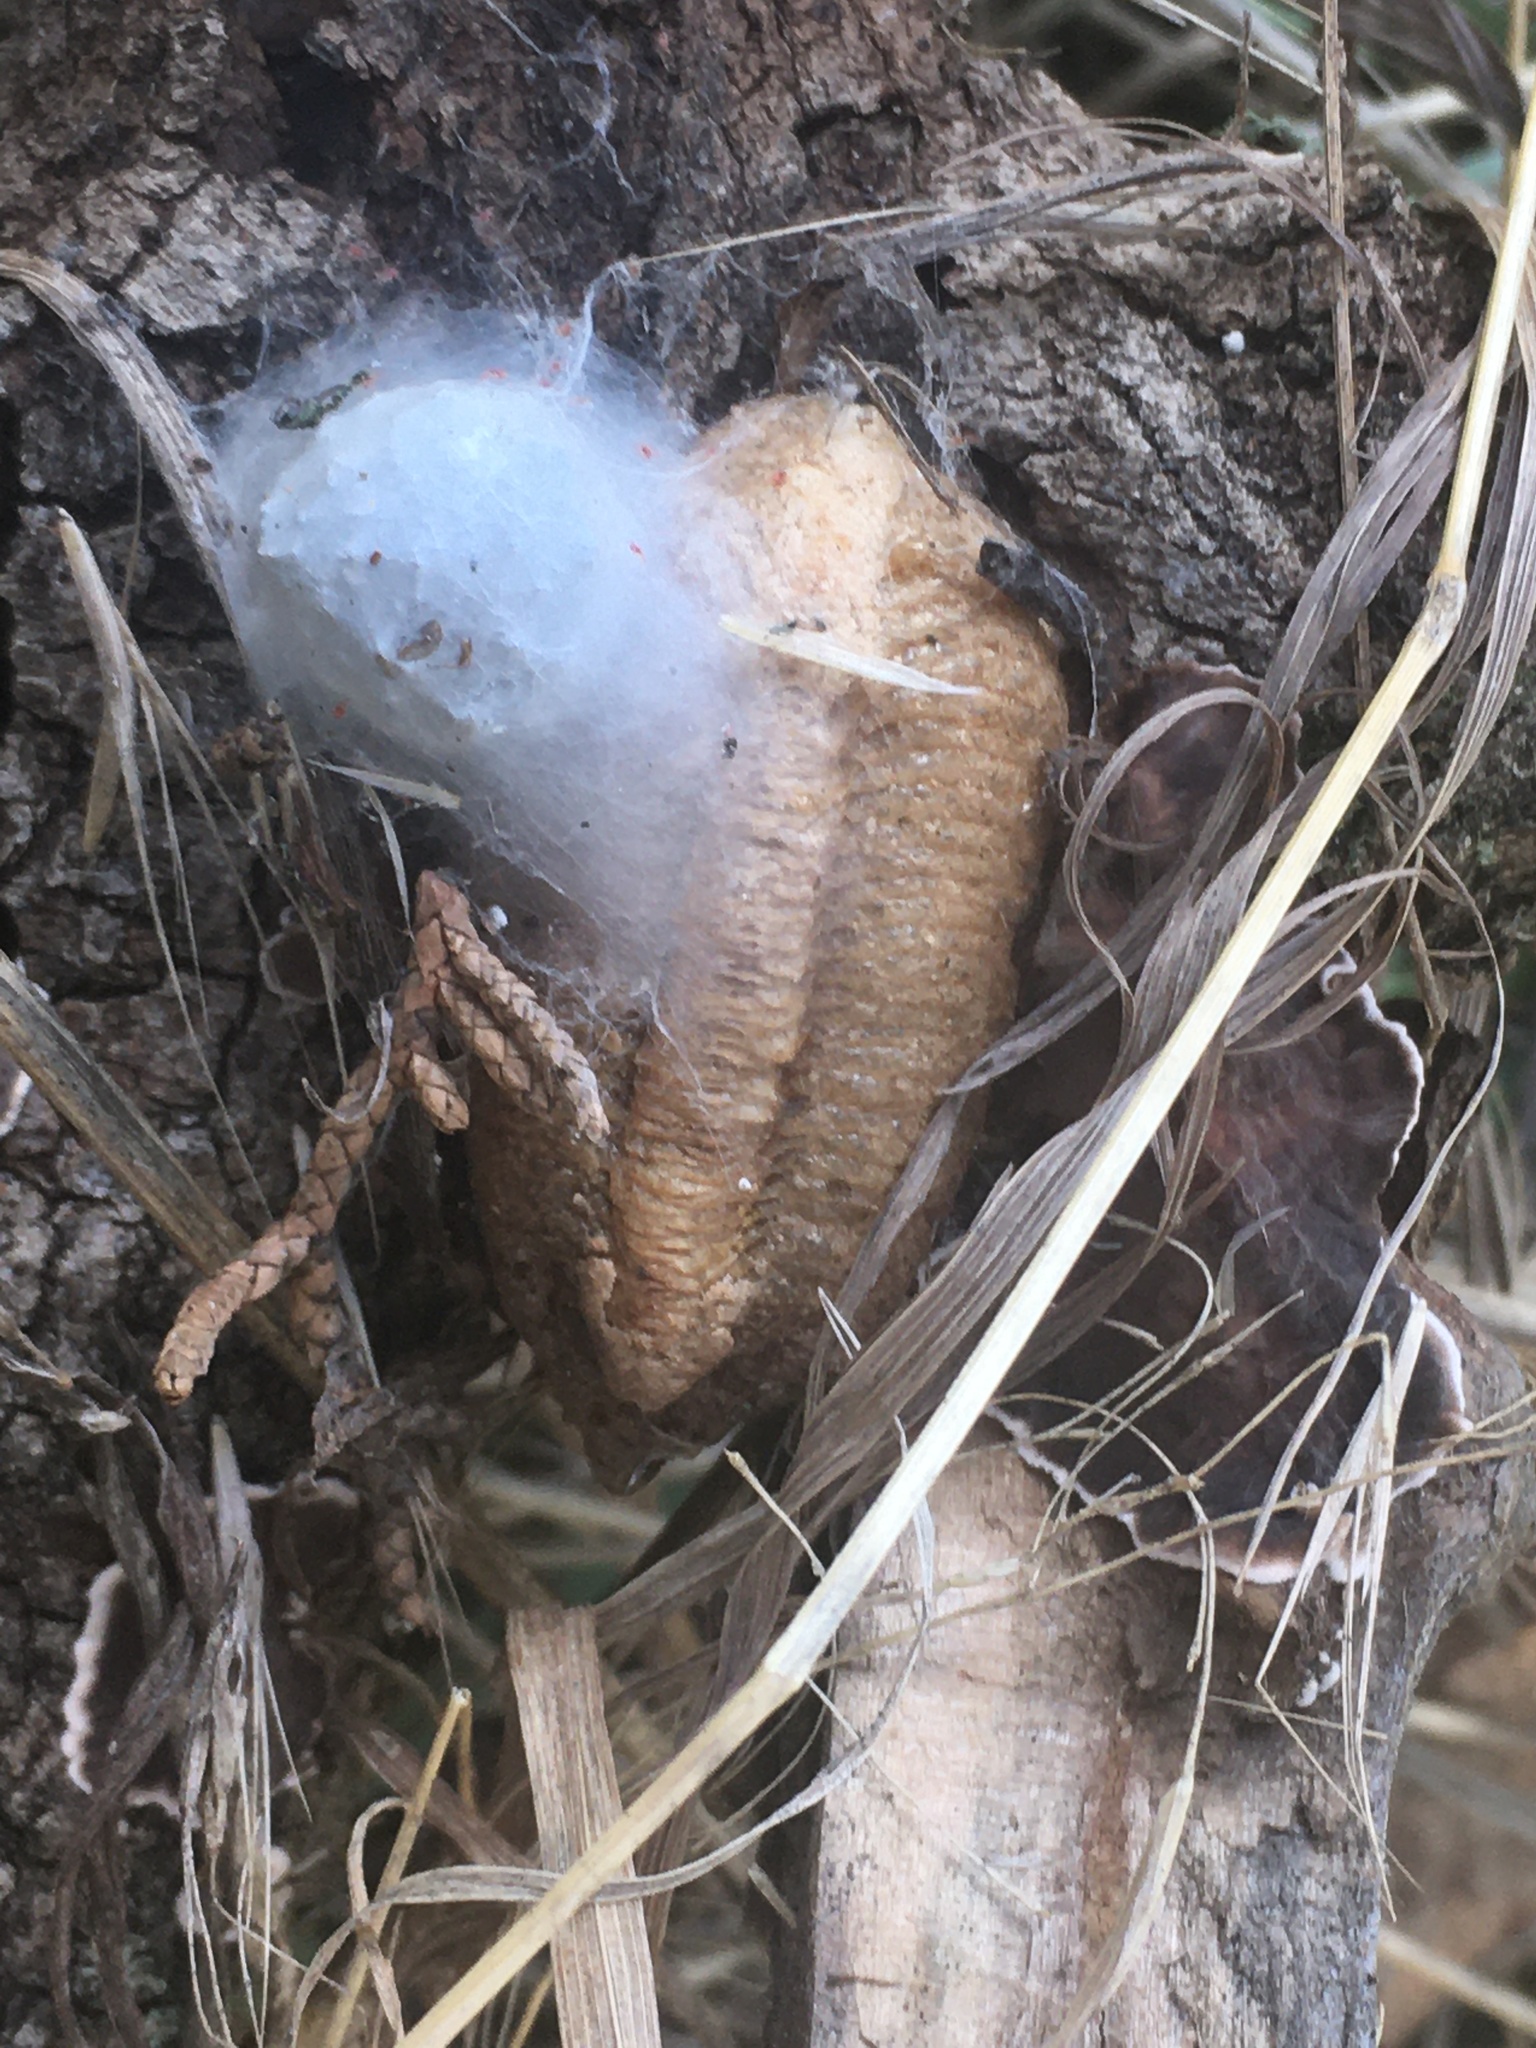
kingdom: Animalia
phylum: Arthropoda
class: Insecta
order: Mantodea
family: Mantidae
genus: Mantis
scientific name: Mantis religiosa
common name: Praying mantis
